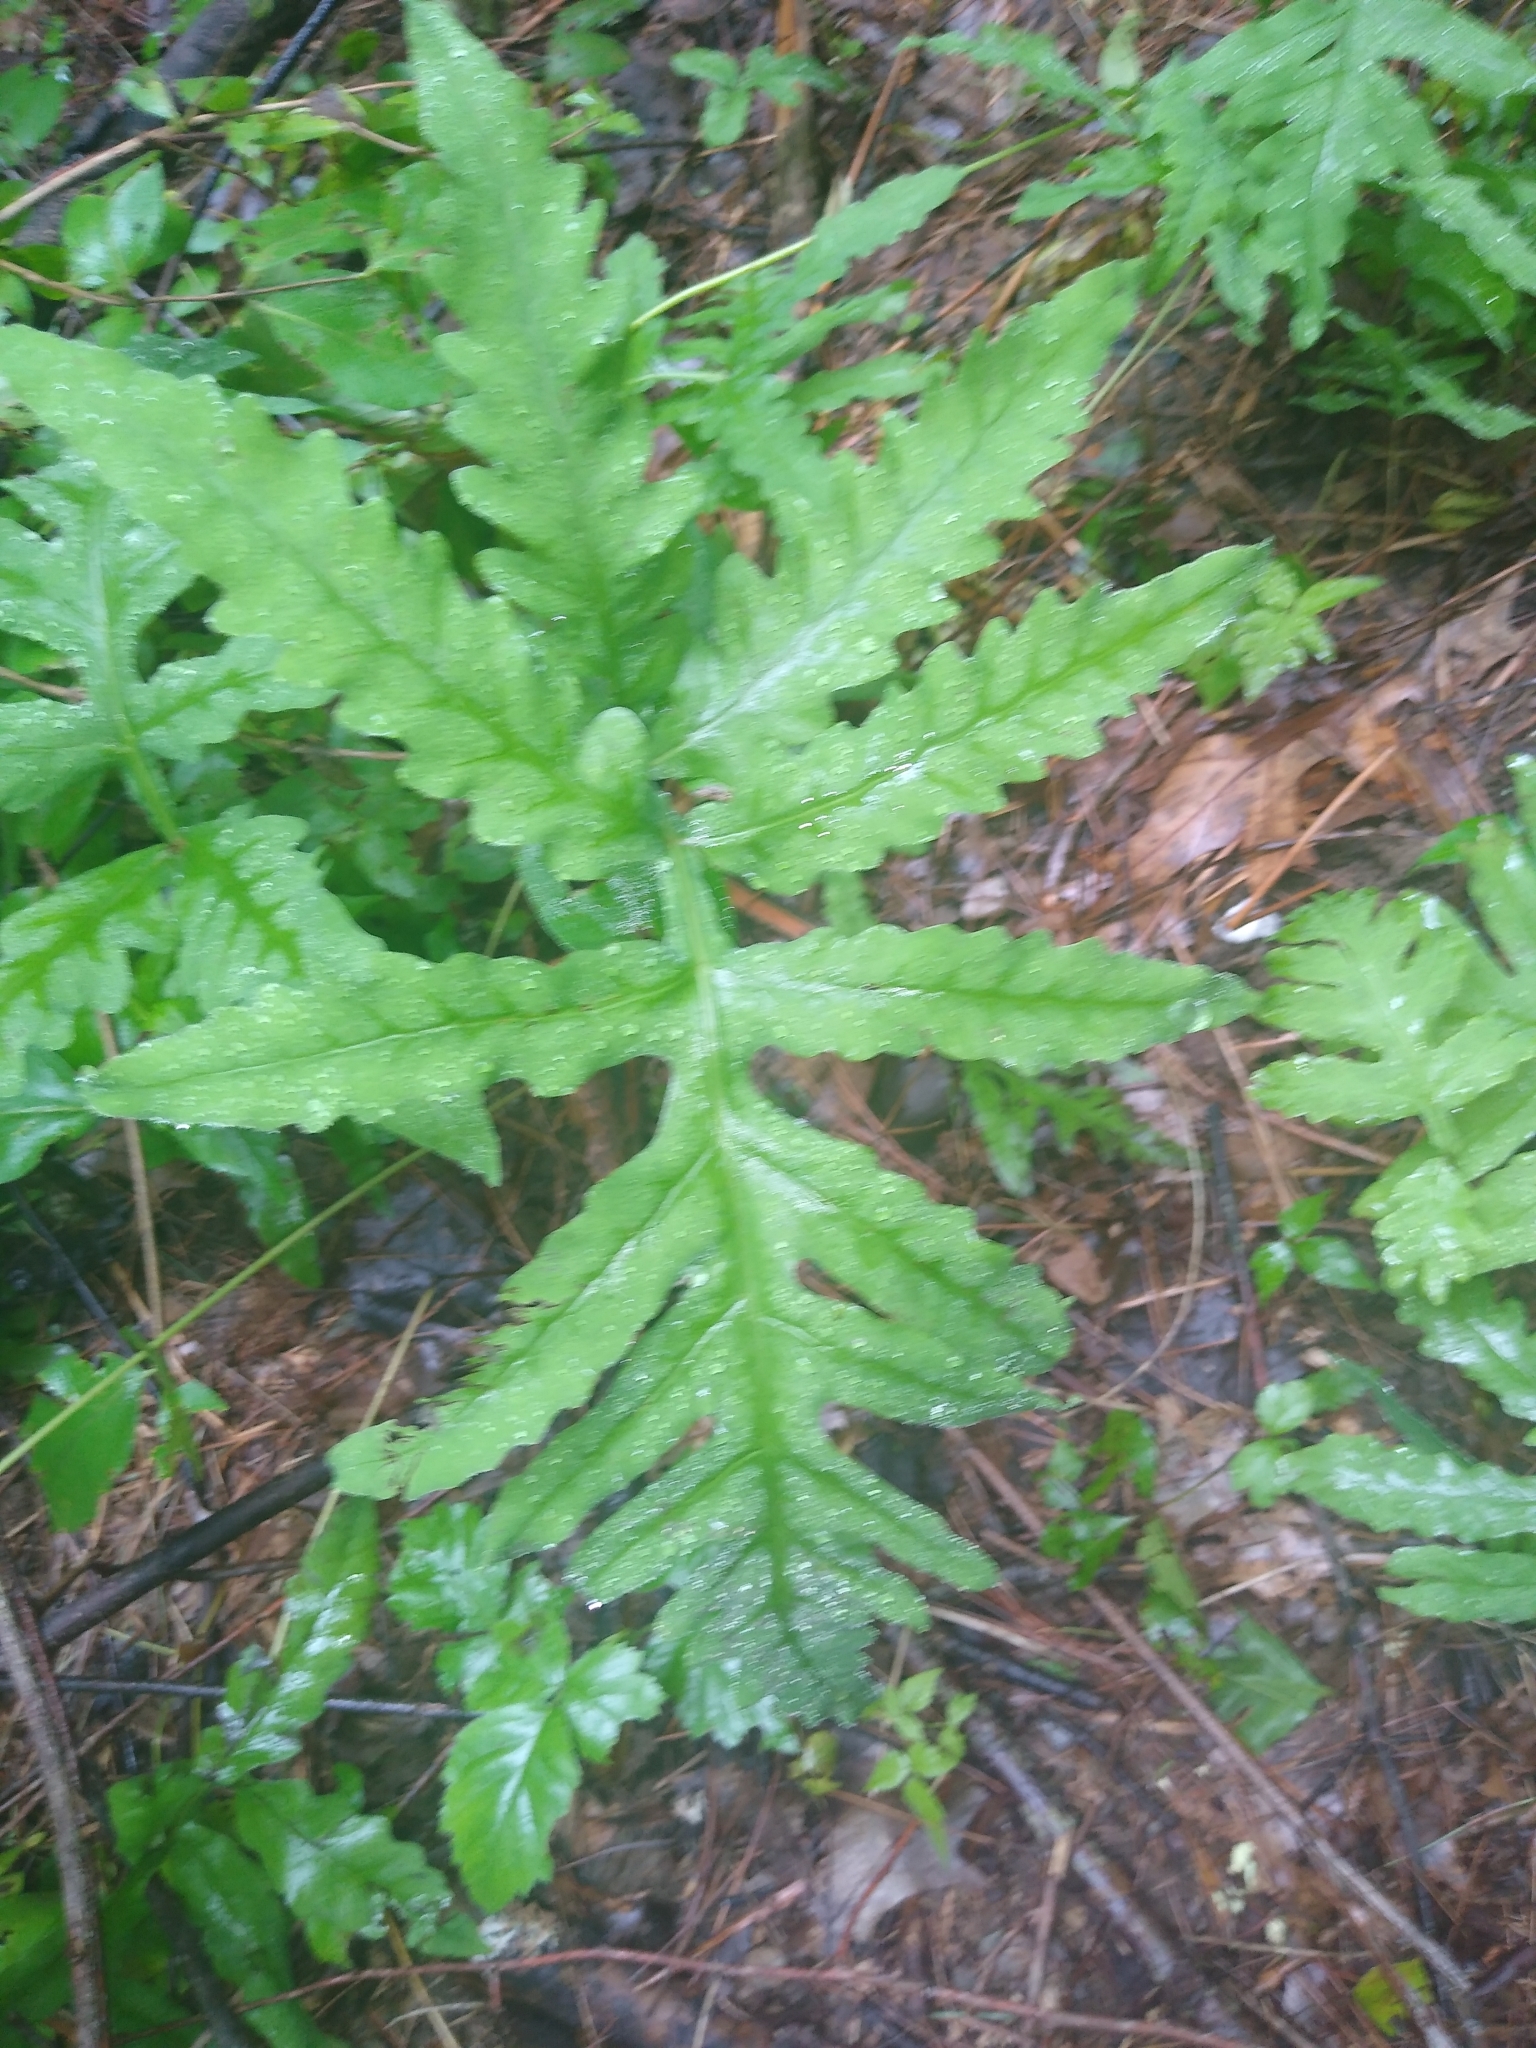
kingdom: Plantae
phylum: Tracheophyta
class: Polypodiopsida
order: Polypodiales
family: Onocleaceae
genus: Onoclea
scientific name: Onoclea sensibilis
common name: Sensitive fern
